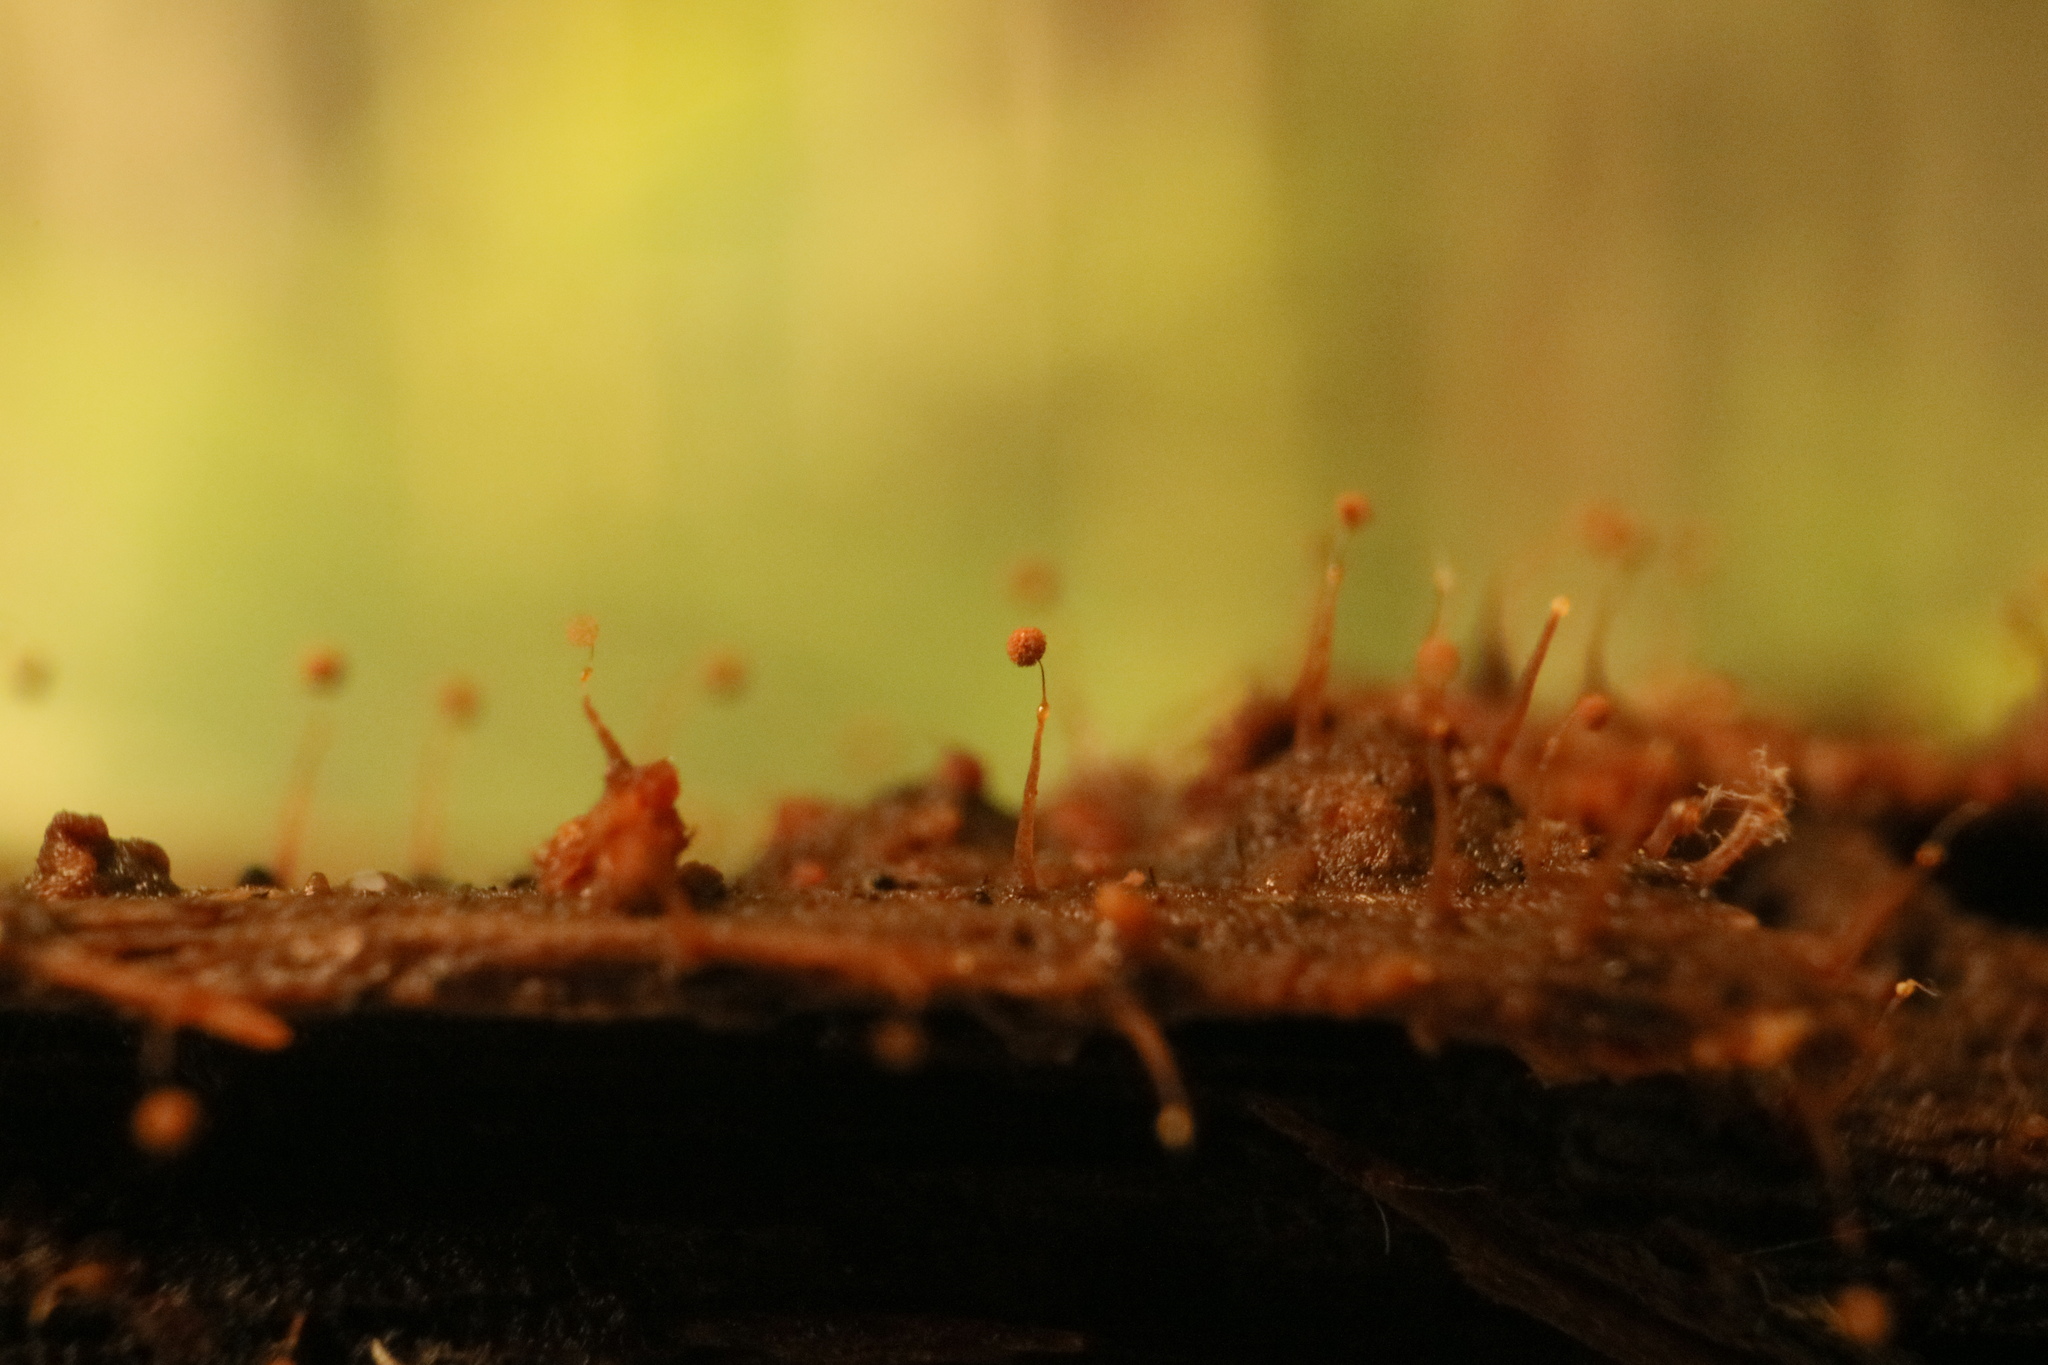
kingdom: Protozoa
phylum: Mycetozoa
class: Myxomycetes
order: Echinosteliales
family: Clastodermataceae
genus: Clastoderma
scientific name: Clastoderma debaryanum
